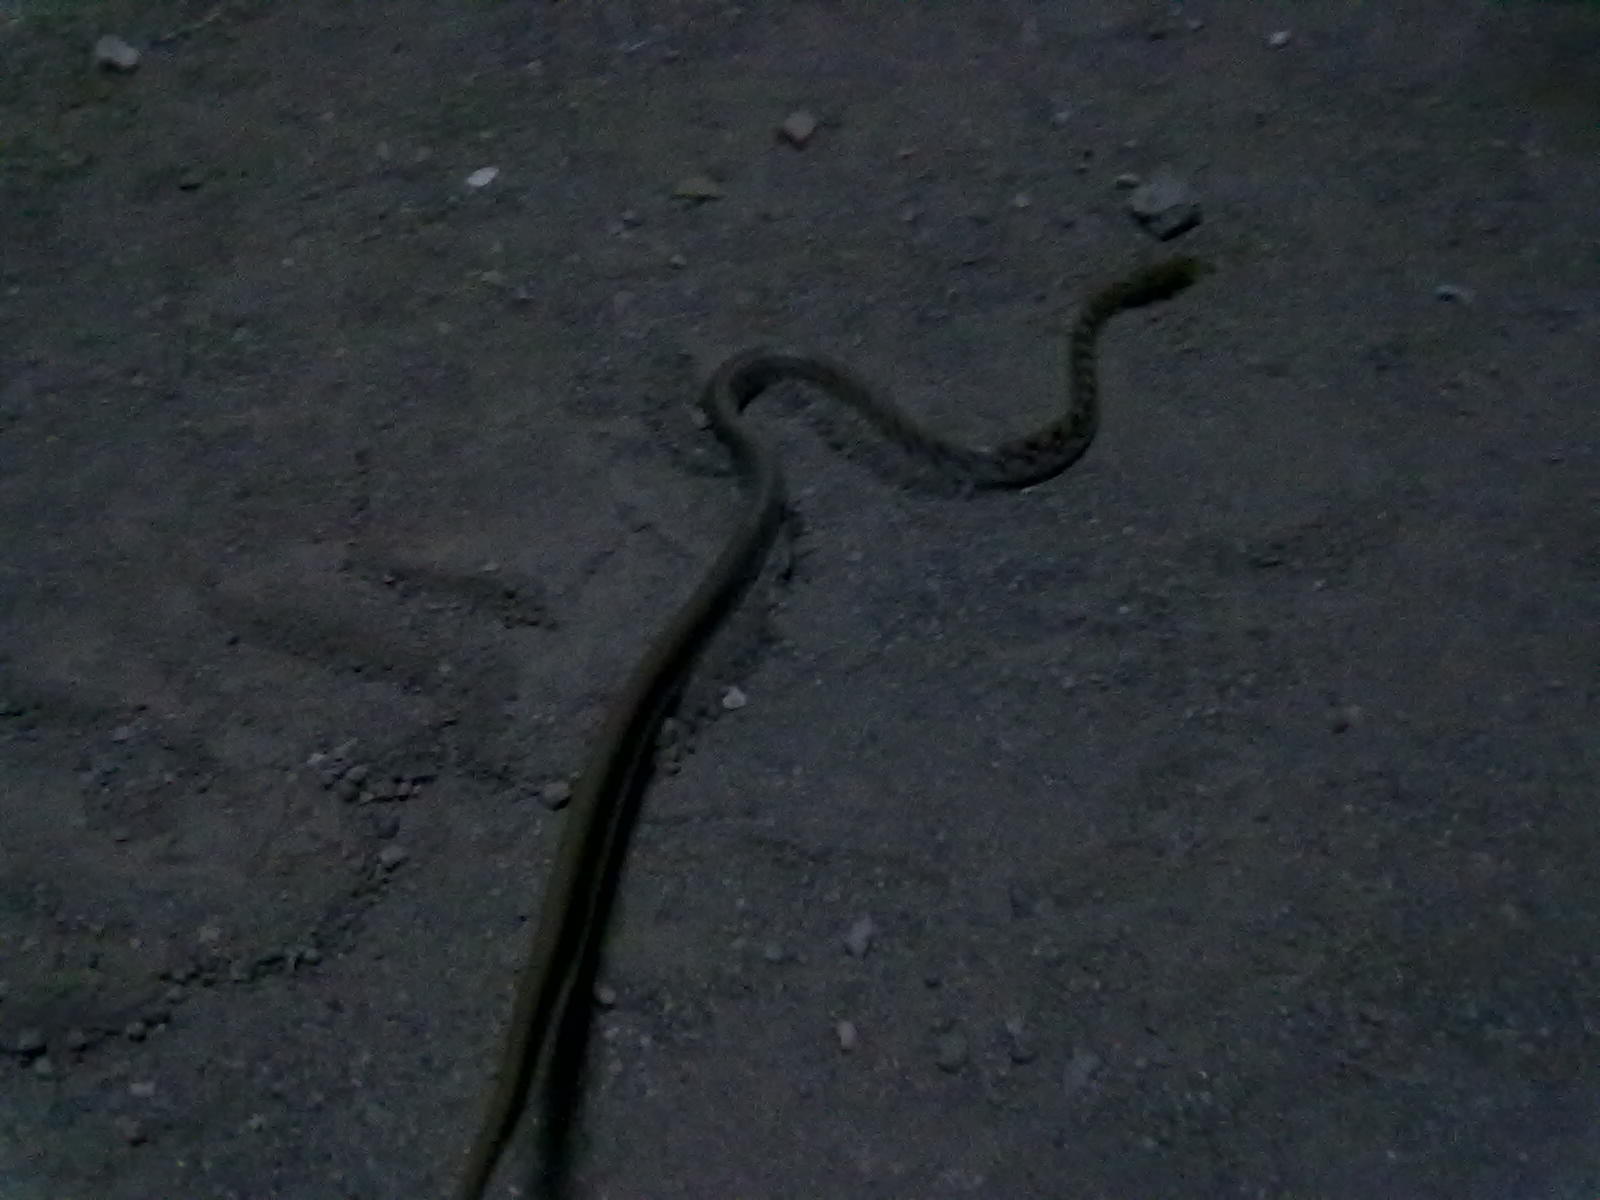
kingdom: Animalia
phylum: Chordata
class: Squamata
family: Colubridae
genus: Coelognathus
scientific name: Coelognathus helena
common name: Trinket snake
